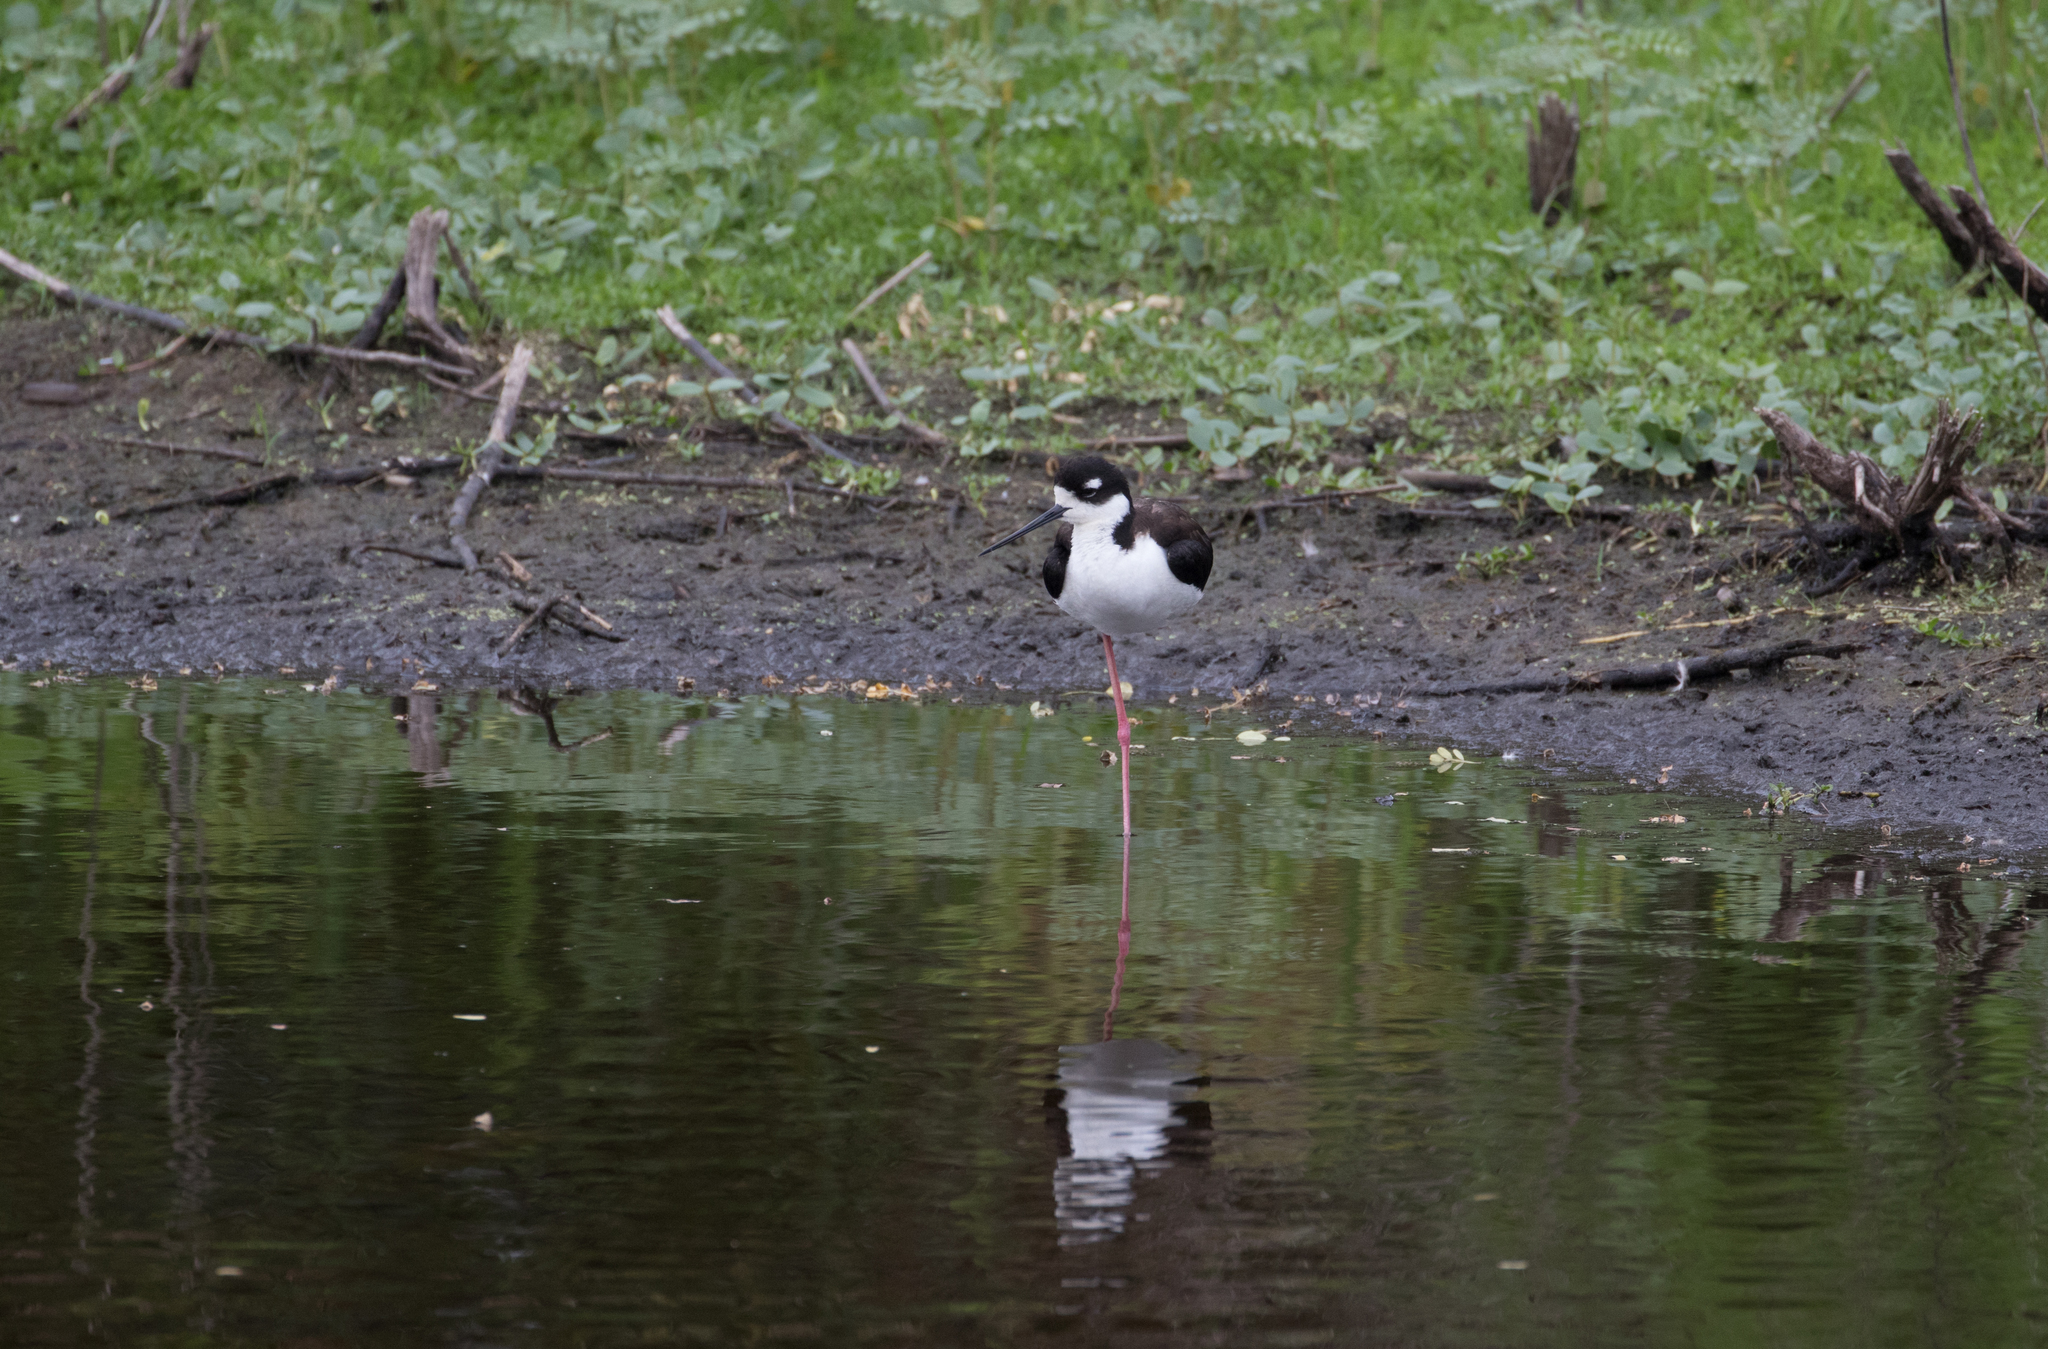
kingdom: Animalia
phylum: Chordata
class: Aves
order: Charadriiformes
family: Recurvirostridae
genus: Himantopus
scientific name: Himantopus mexicanus
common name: Black-necked stilt
